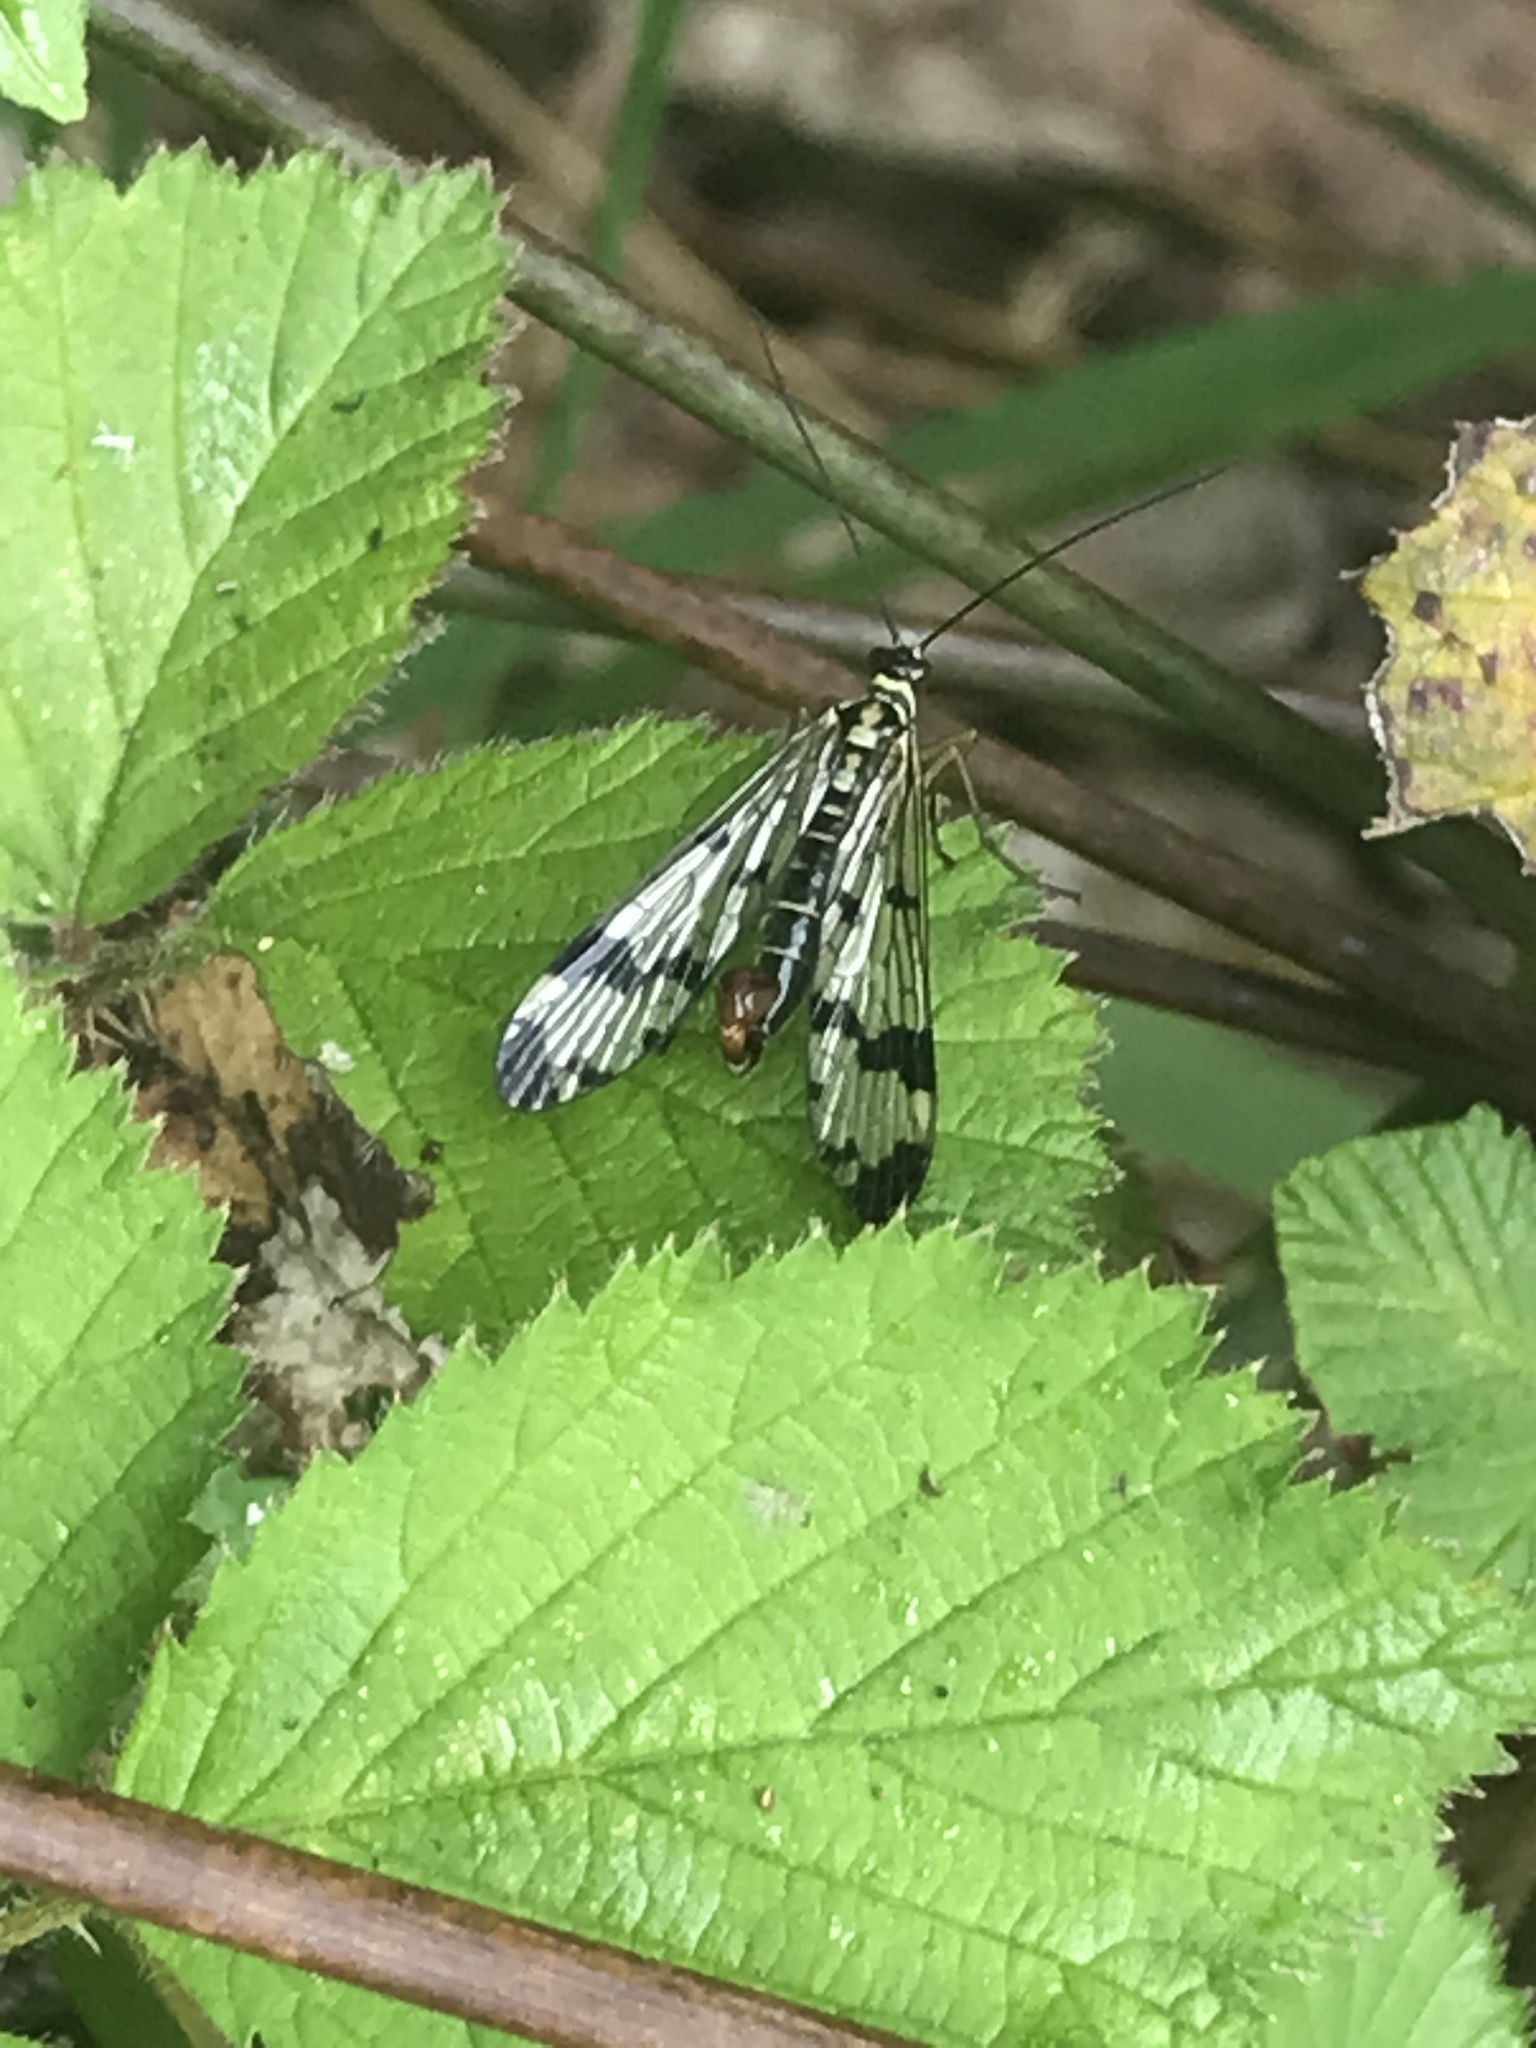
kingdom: Animalia
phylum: Arthropoda
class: Insecta
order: Mecoptera
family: Panorpidae
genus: Panorpa
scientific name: Panorpa communis
